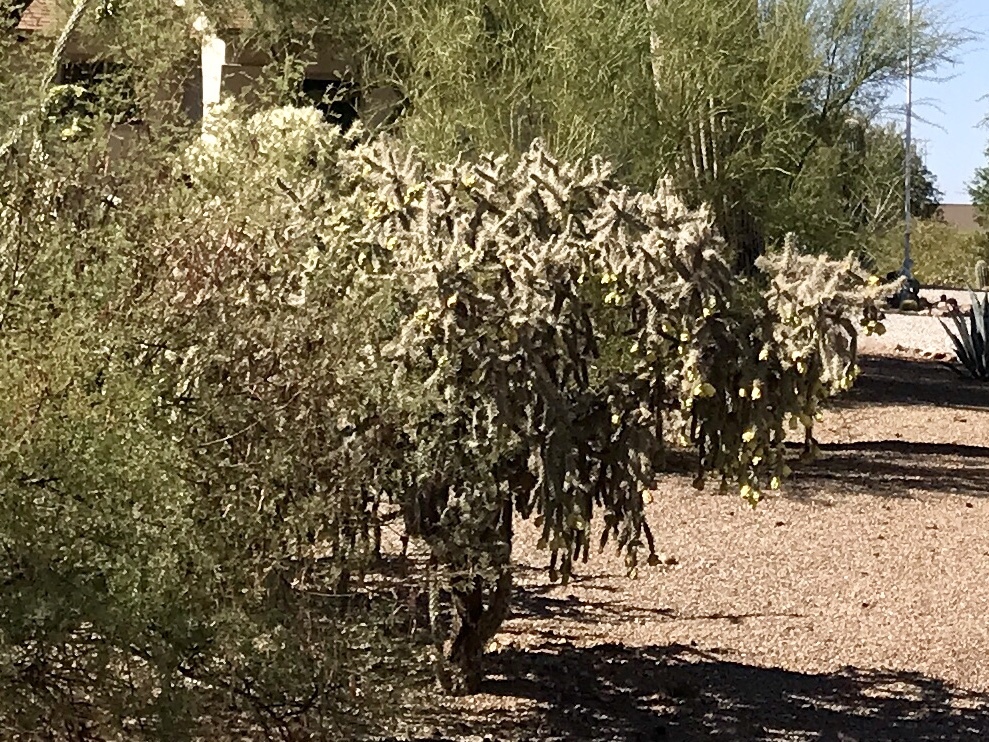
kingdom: Plantae
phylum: Tracheophyta
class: Magnoliopsida
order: Caryophyllales
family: Cactaceae
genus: Cylindropuntia
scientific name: Cylindropuntia imbricata
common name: Candelabrum cactus
